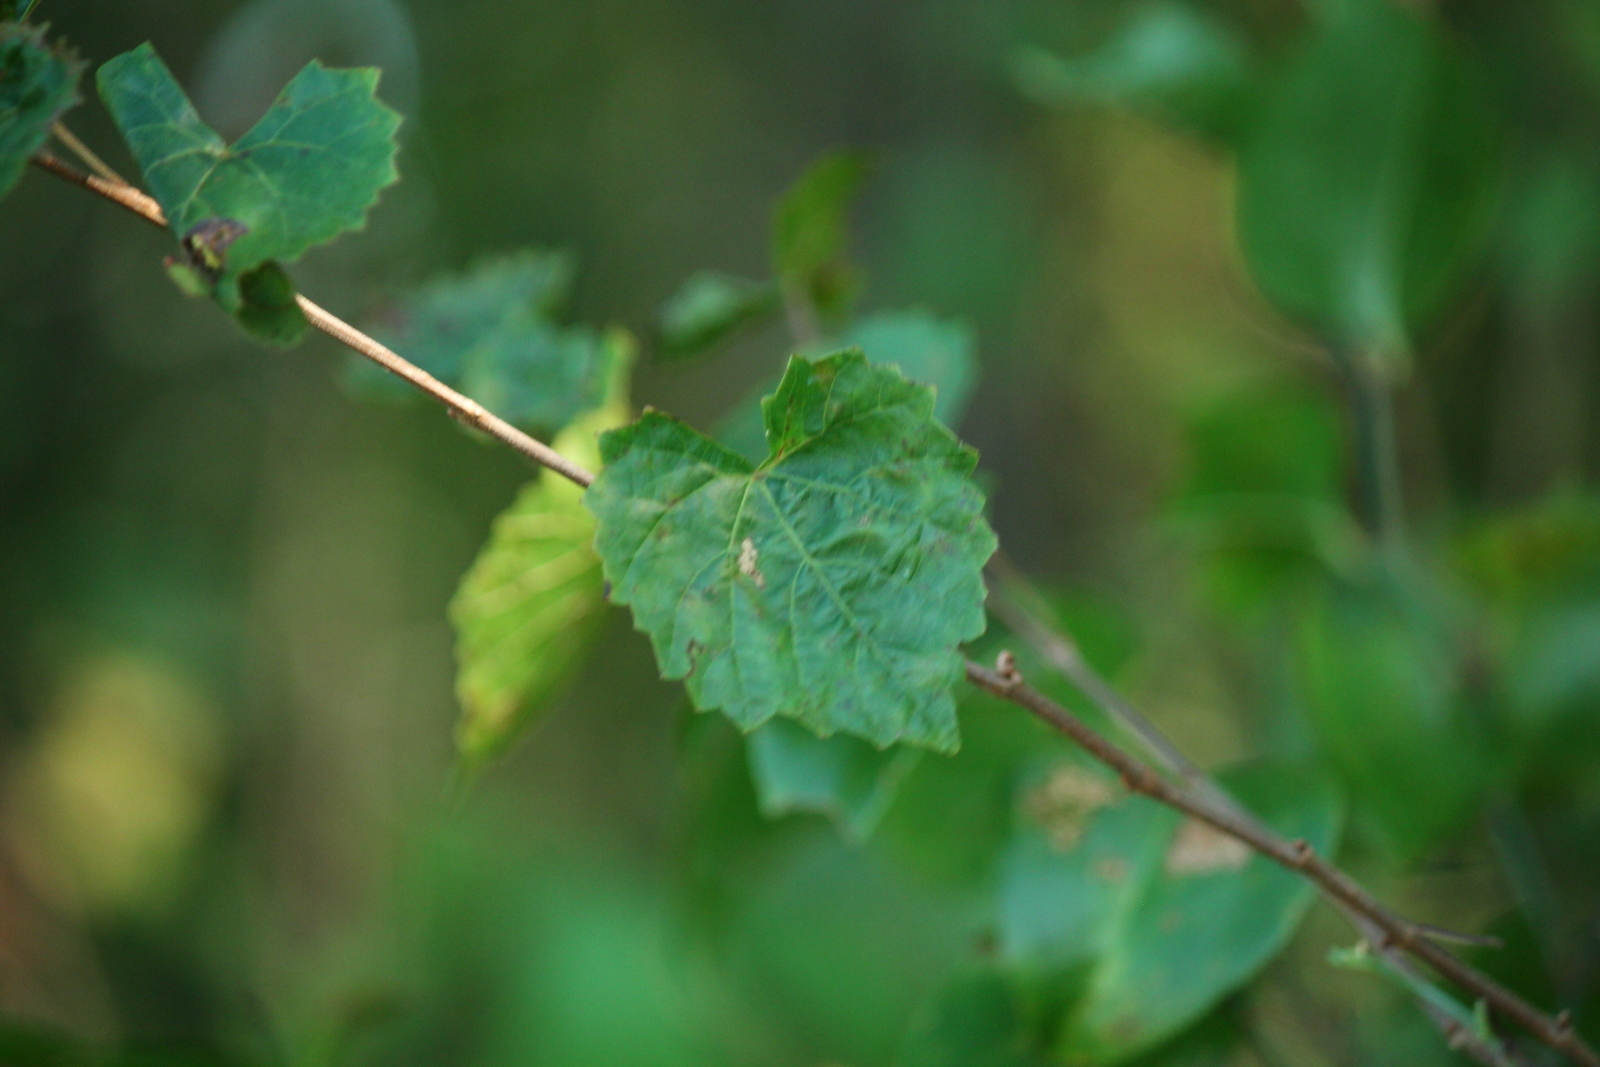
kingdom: Plantae
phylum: Tracheophyta
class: Magnoliopsida
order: Vitales
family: Vitaceae
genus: Vitis
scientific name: Vitis rotundifolia
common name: Muscadine grape
